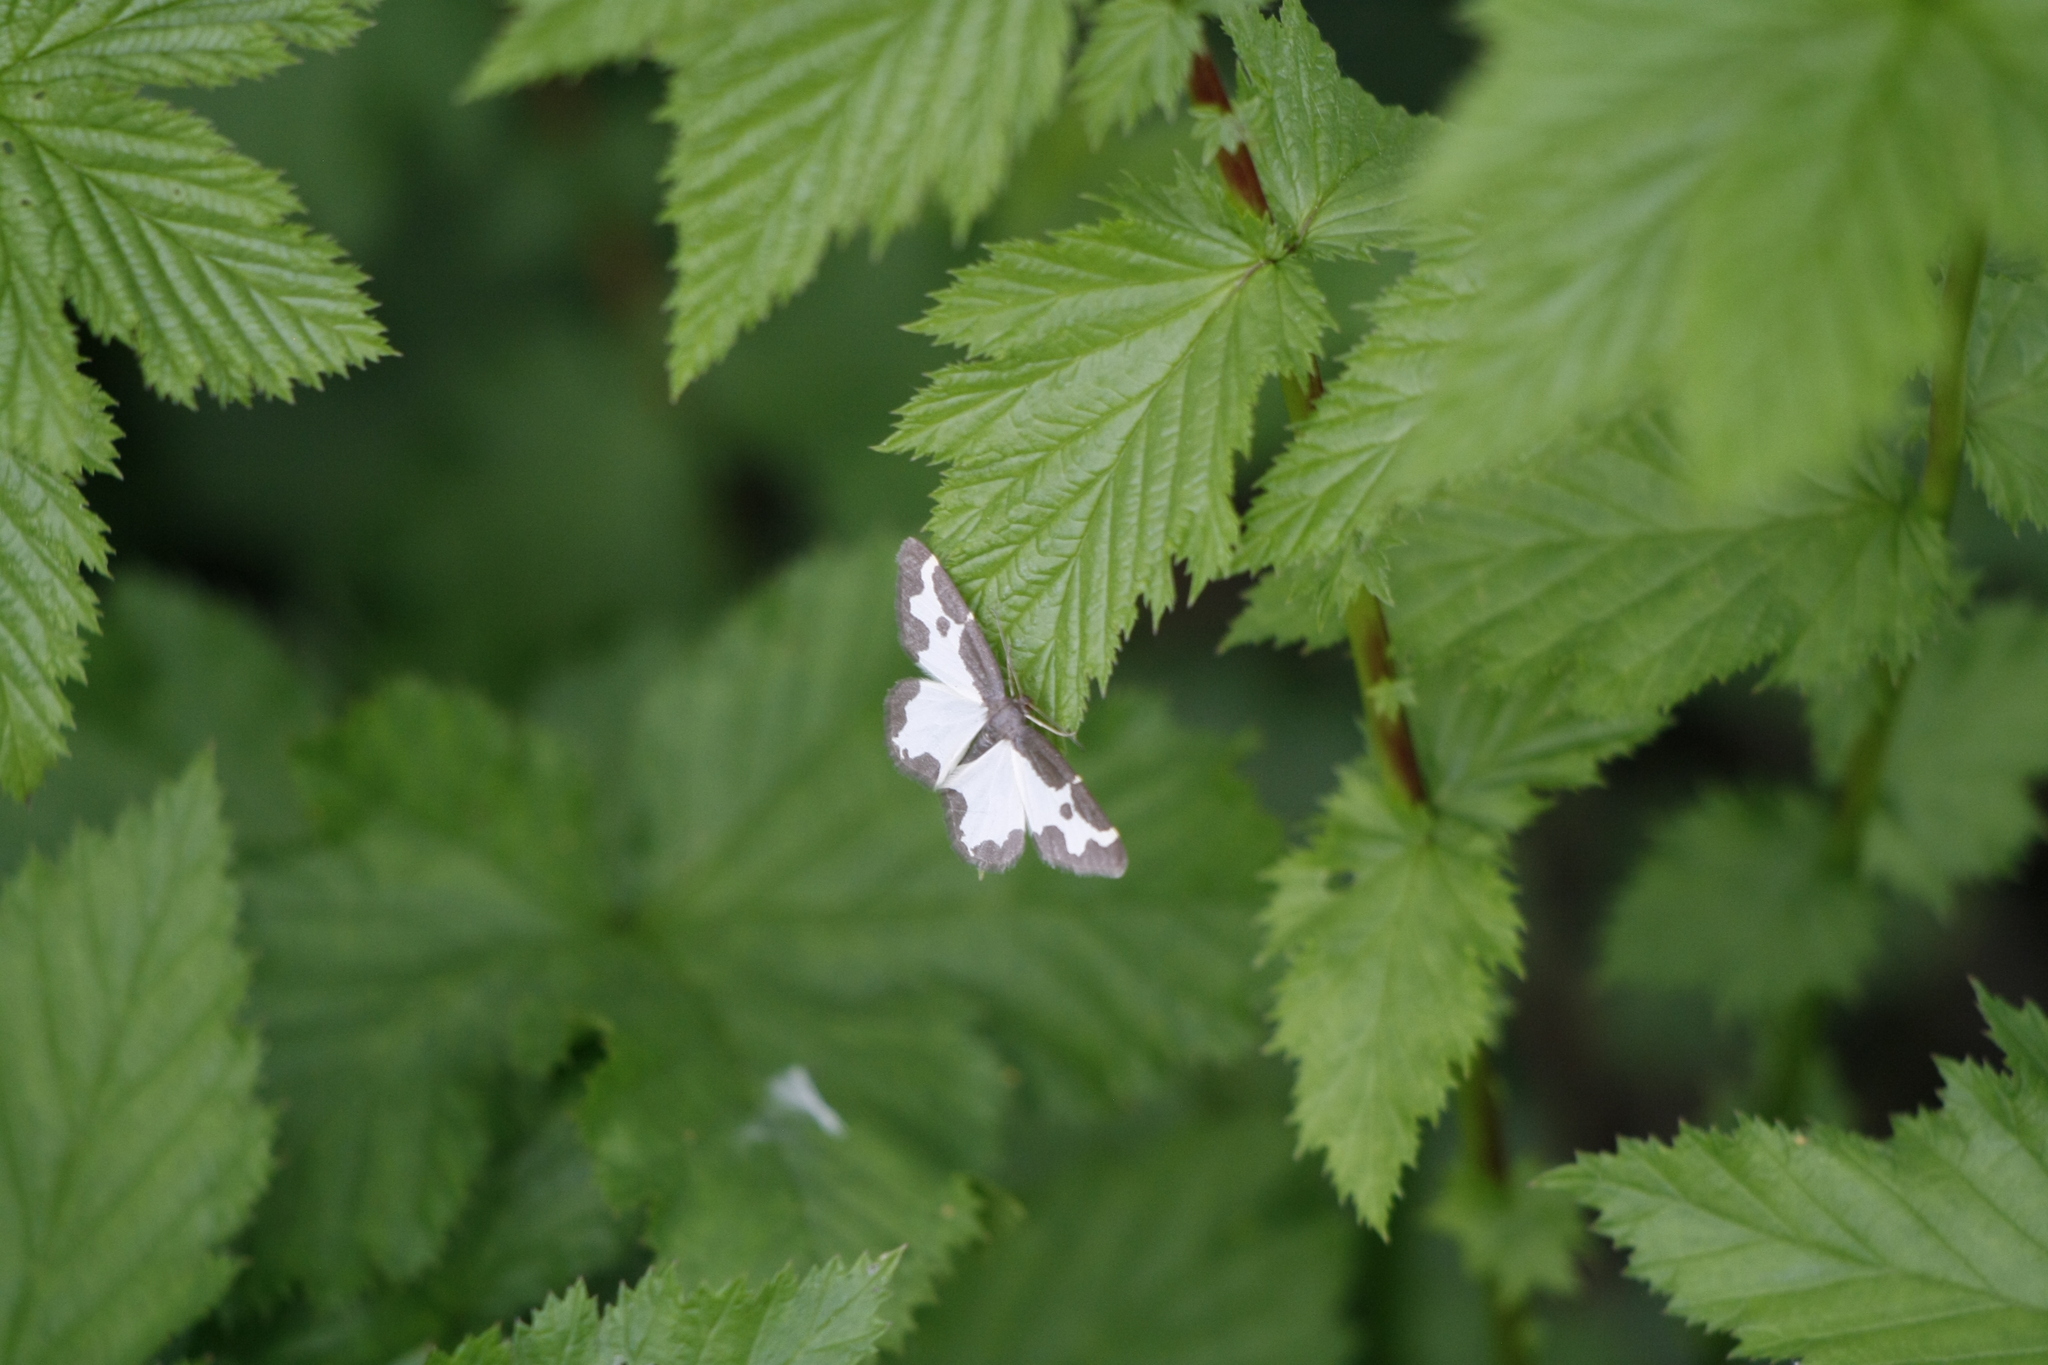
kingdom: Animalia
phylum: Arthropoda
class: Insecta
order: Lepidoptera
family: Geometridae
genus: Lomaspilis
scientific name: Lomaspilis marginata
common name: Clouded border
